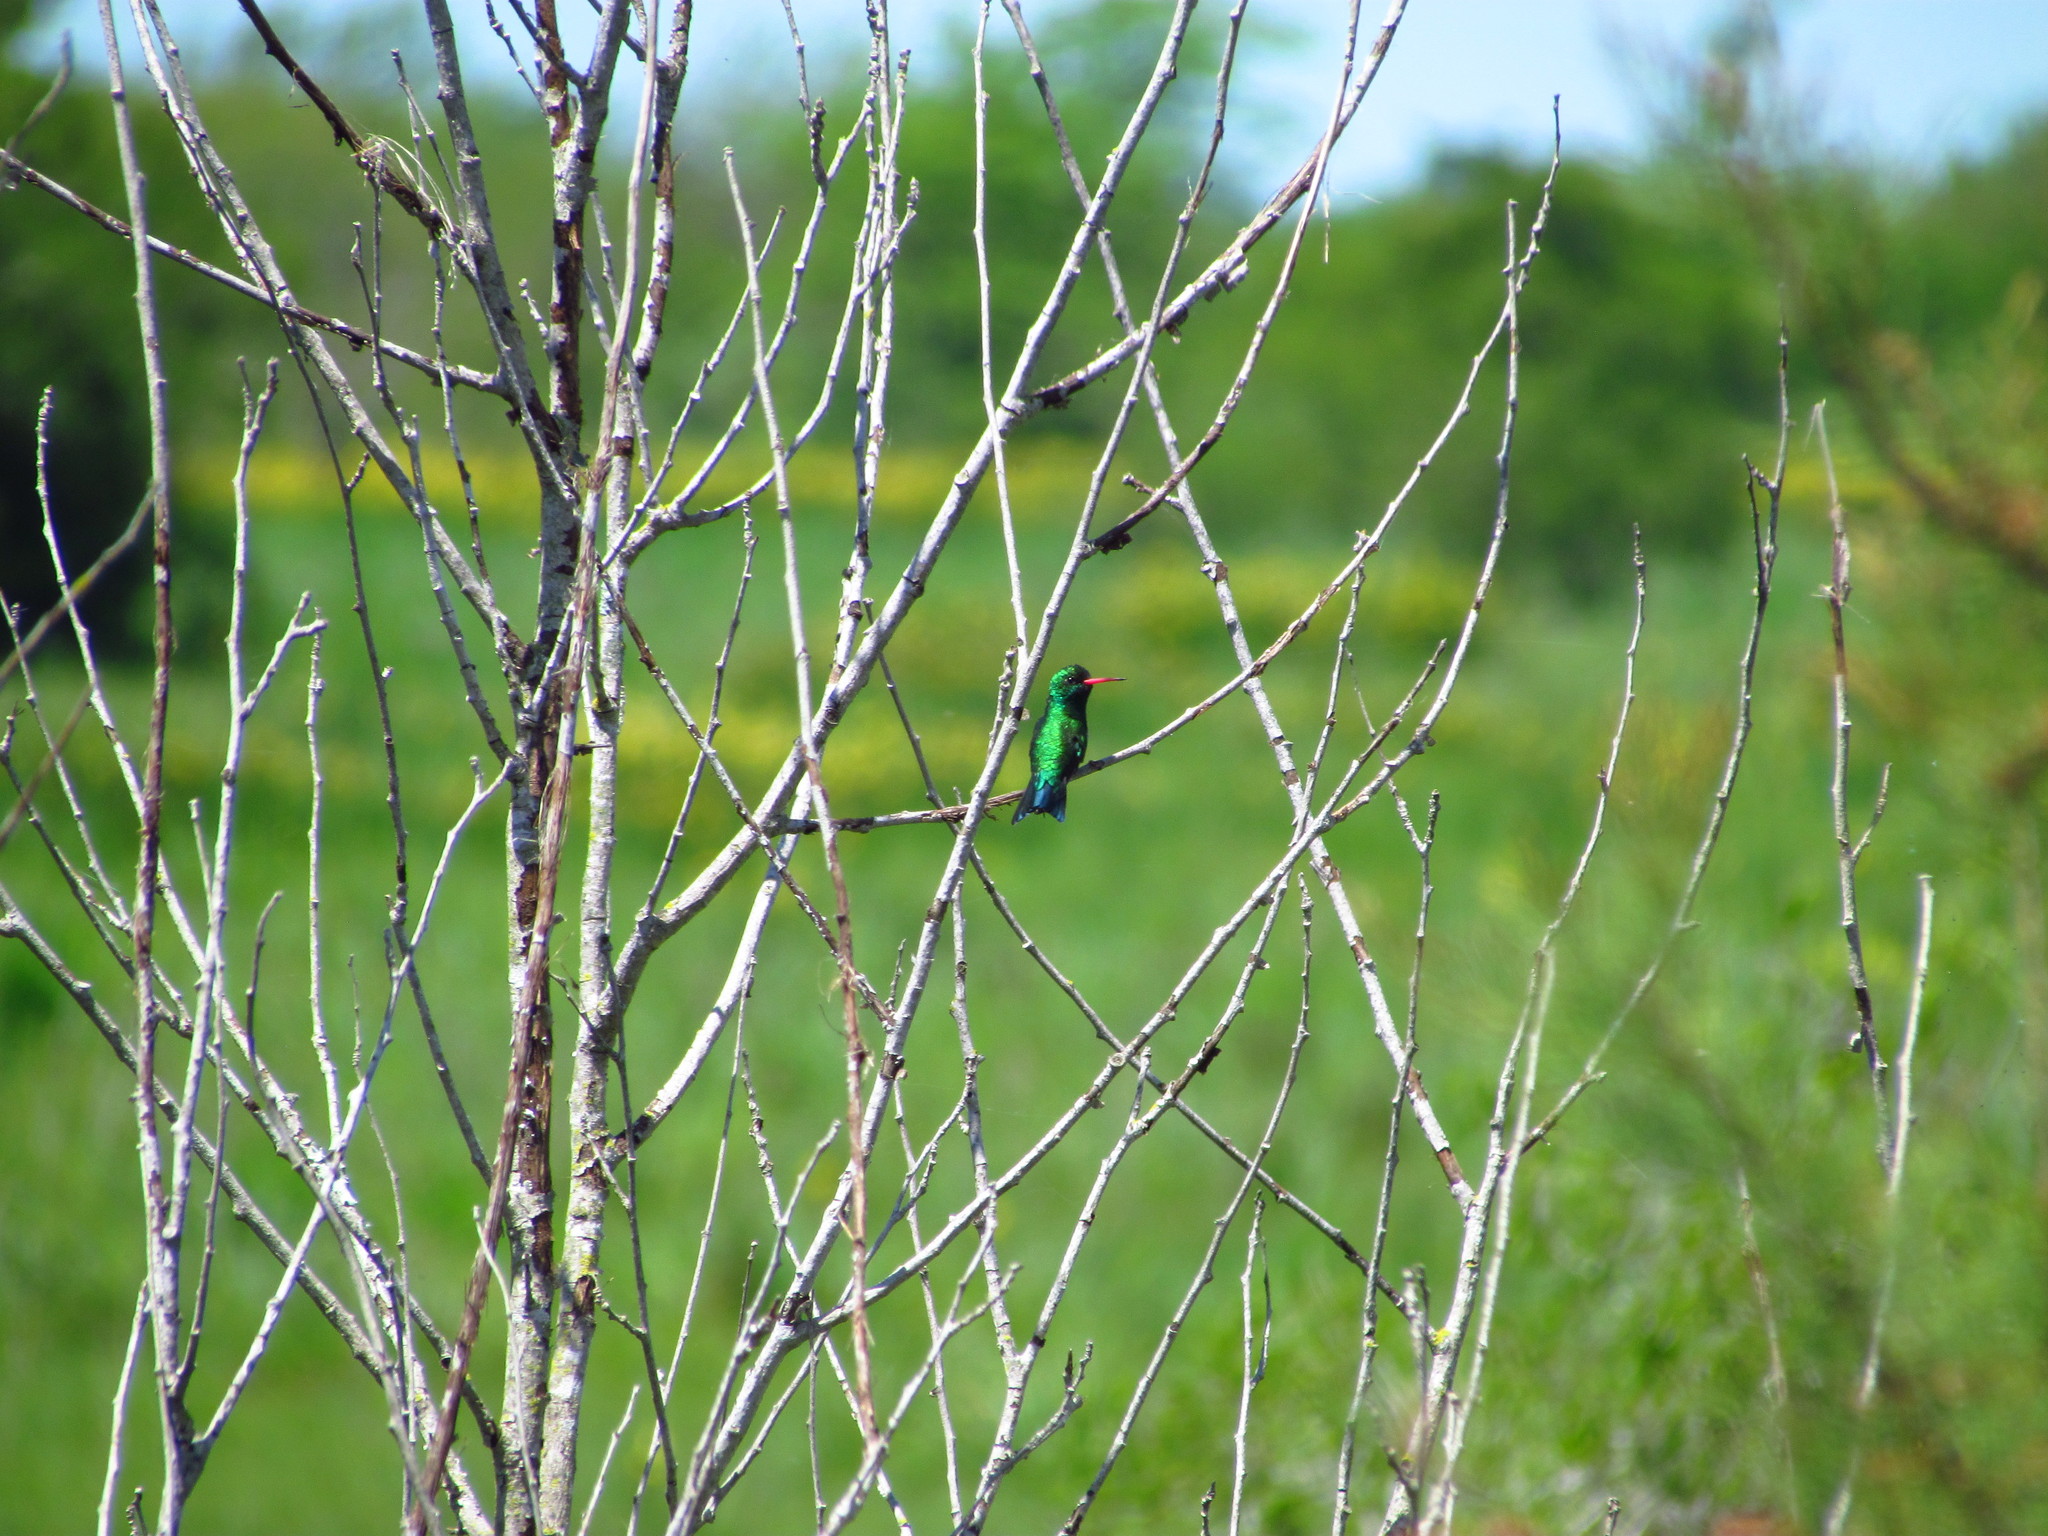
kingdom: Animalia
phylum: Chordata
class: Aves
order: Apodiformes
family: Trochilidae
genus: Chlorostilbon
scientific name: Chlorostilbon lucidus
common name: Glittering-bellied emerald
